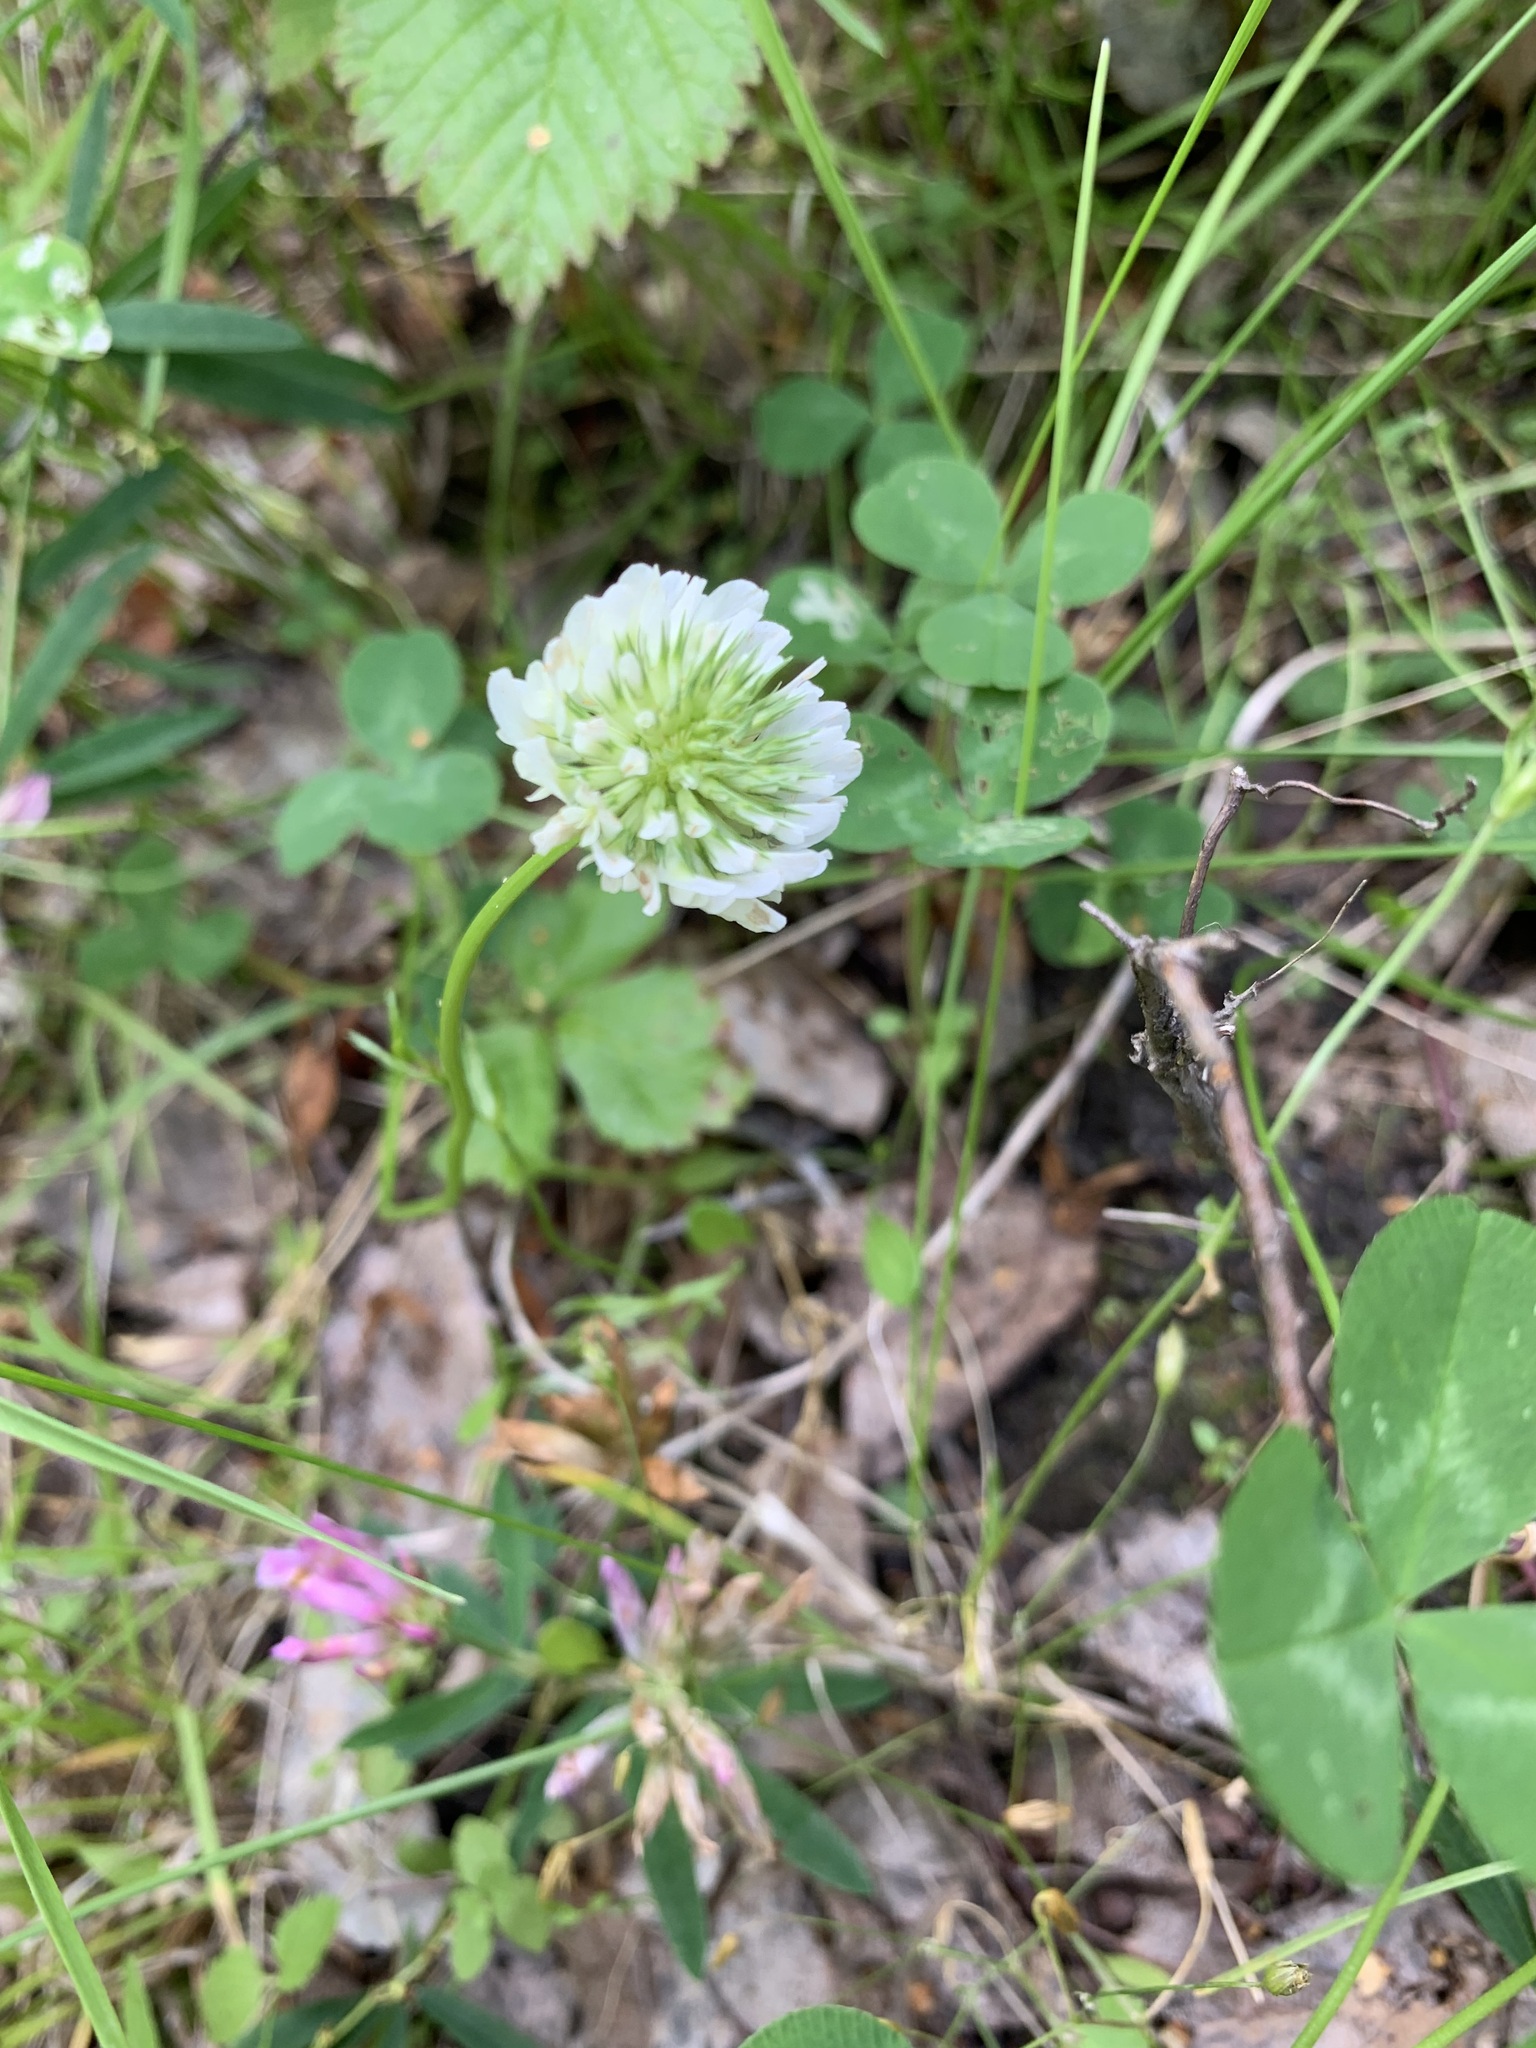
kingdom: Plantae
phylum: Tracheophyta
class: Magnoliopsida
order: Fabales
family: Fabaceae
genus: Trifolium
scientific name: Trifolium repens
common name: White clover
